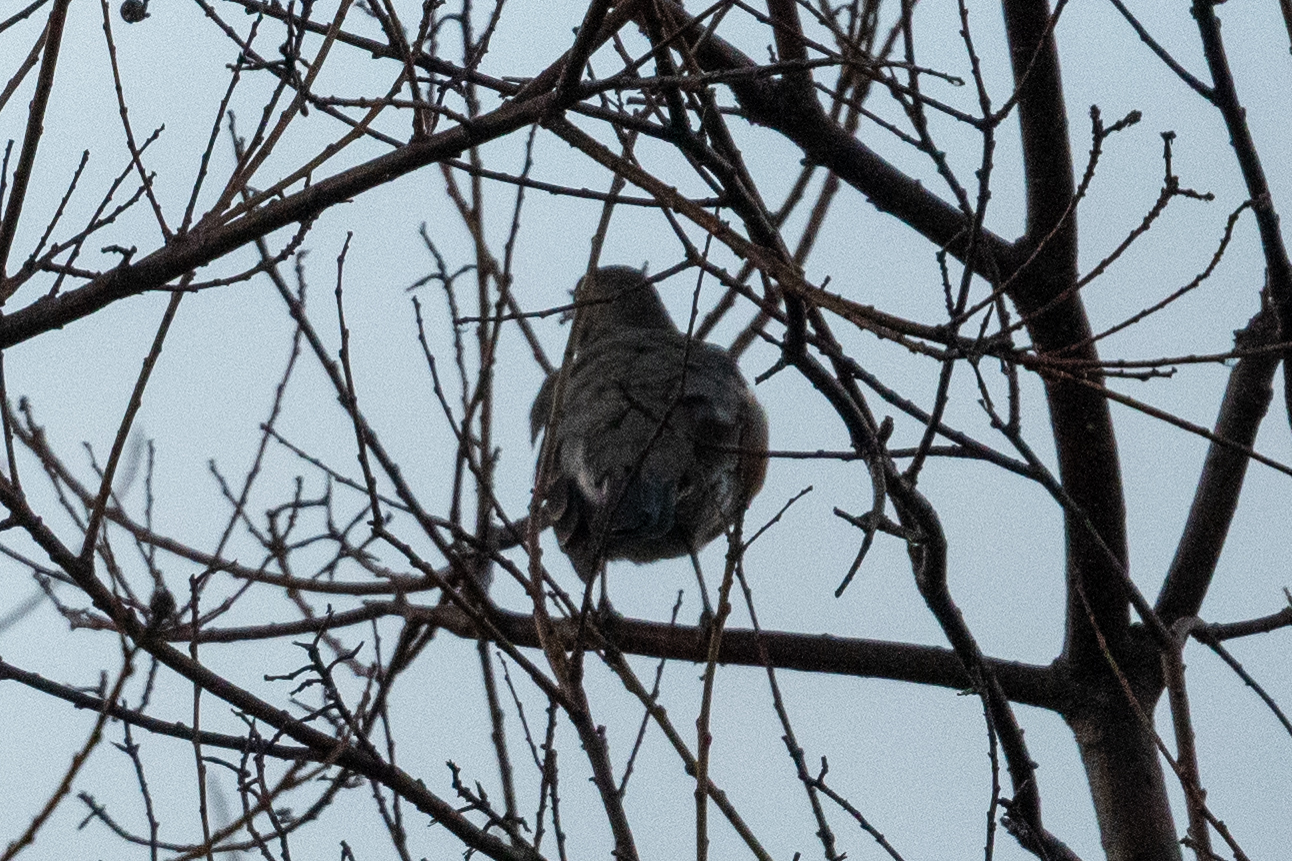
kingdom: Animalia
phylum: Chordata
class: Aves
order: Passeriformes
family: Turdidae
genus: Turdus
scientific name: Turdus migratorius
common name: American robin
